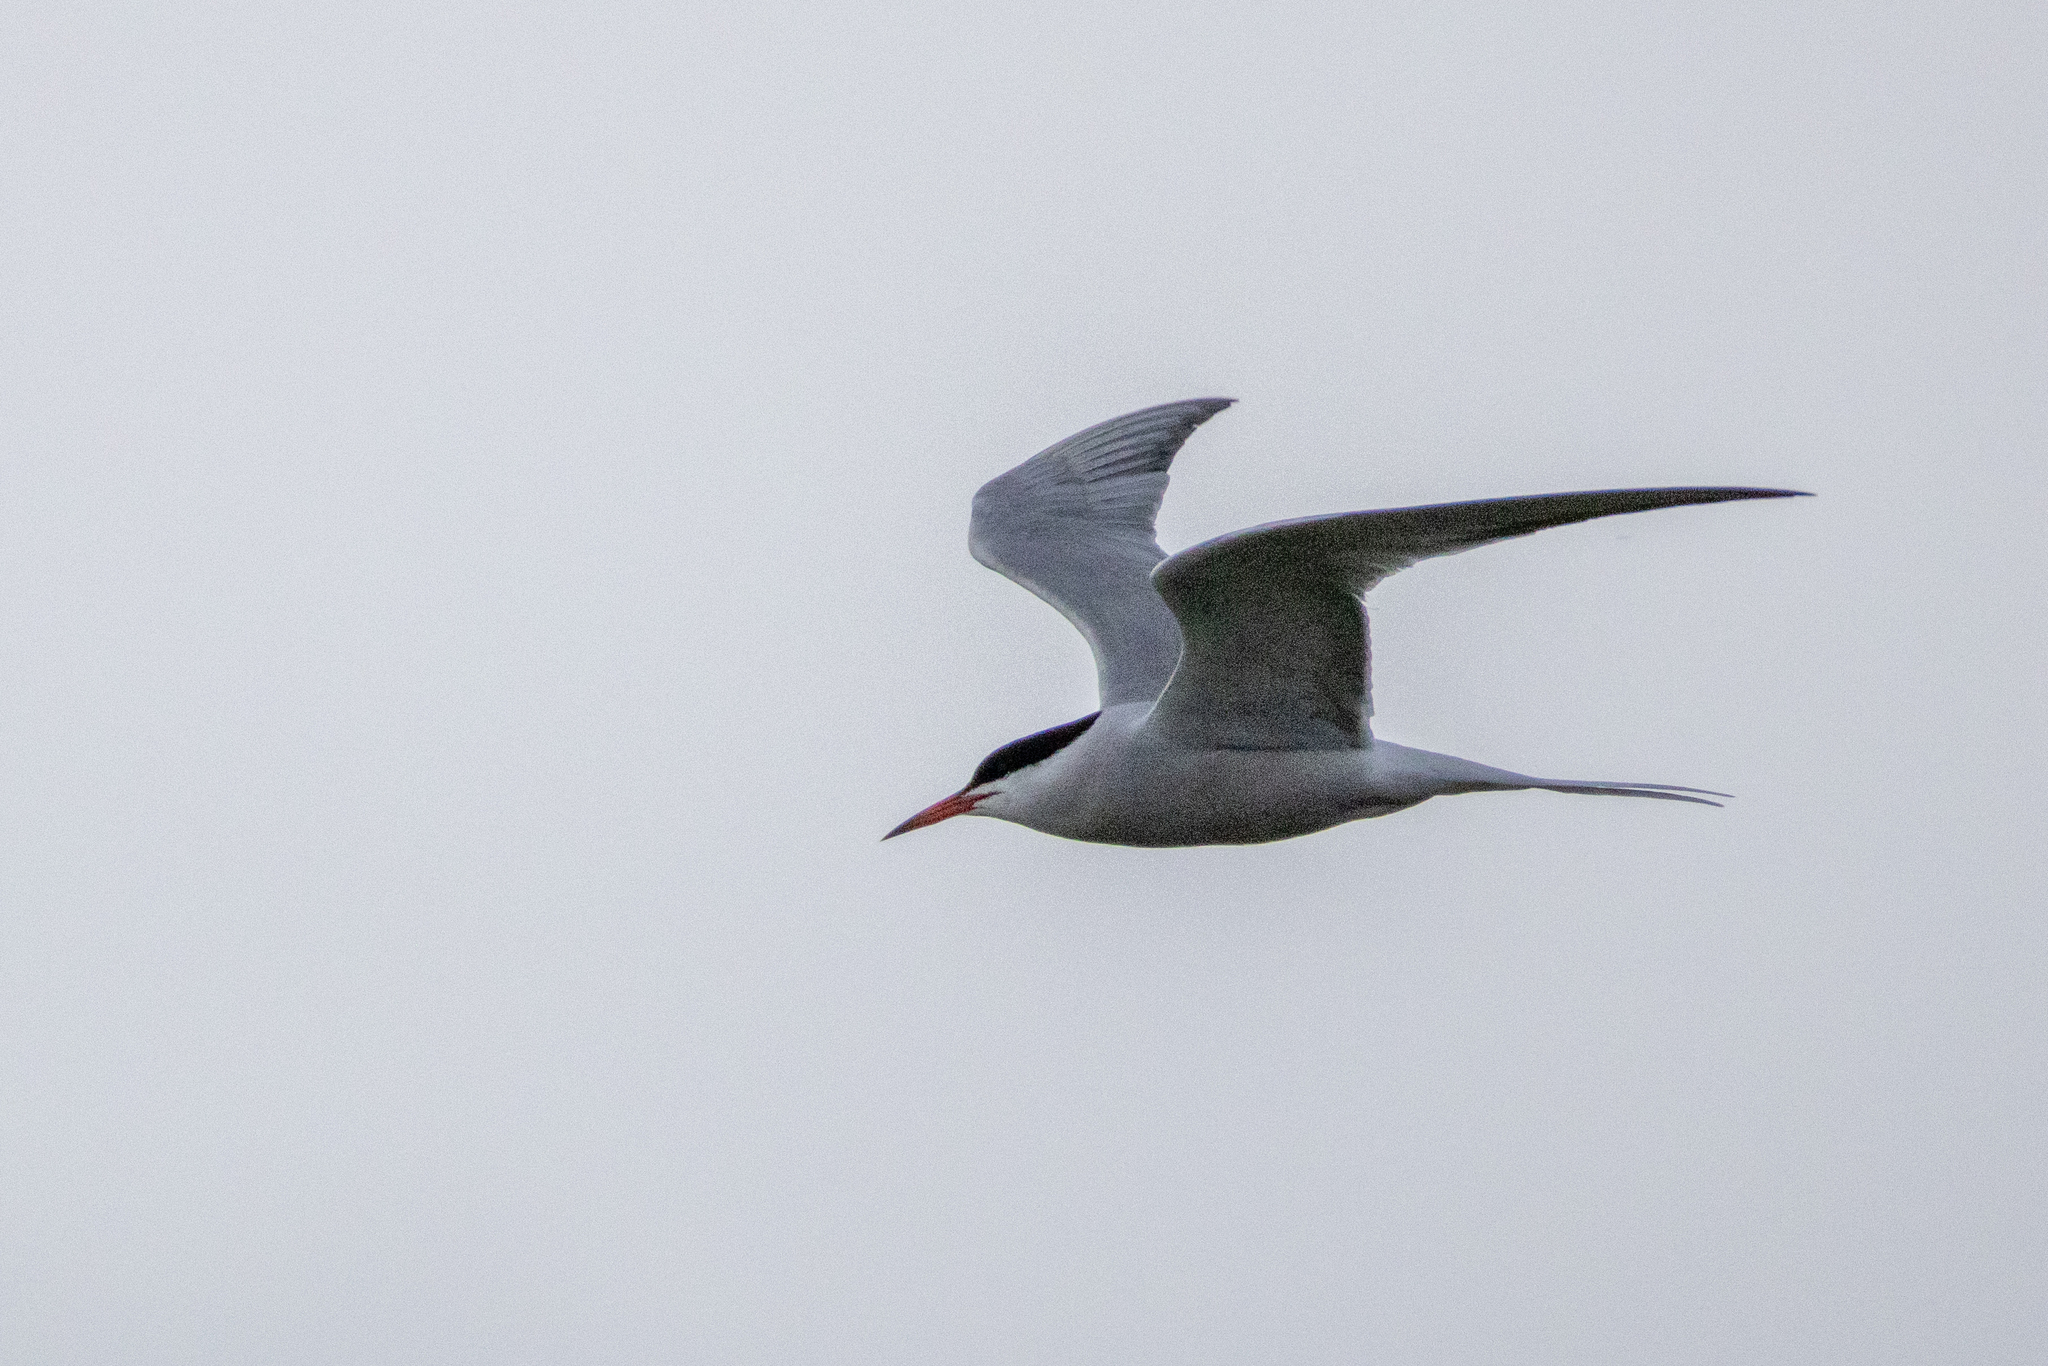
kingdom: Animalia
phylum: Chordata
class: Aves
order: Charadriiformes
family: Laridae
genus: Sterna
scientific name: Sterna hirundo
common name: Common tern
